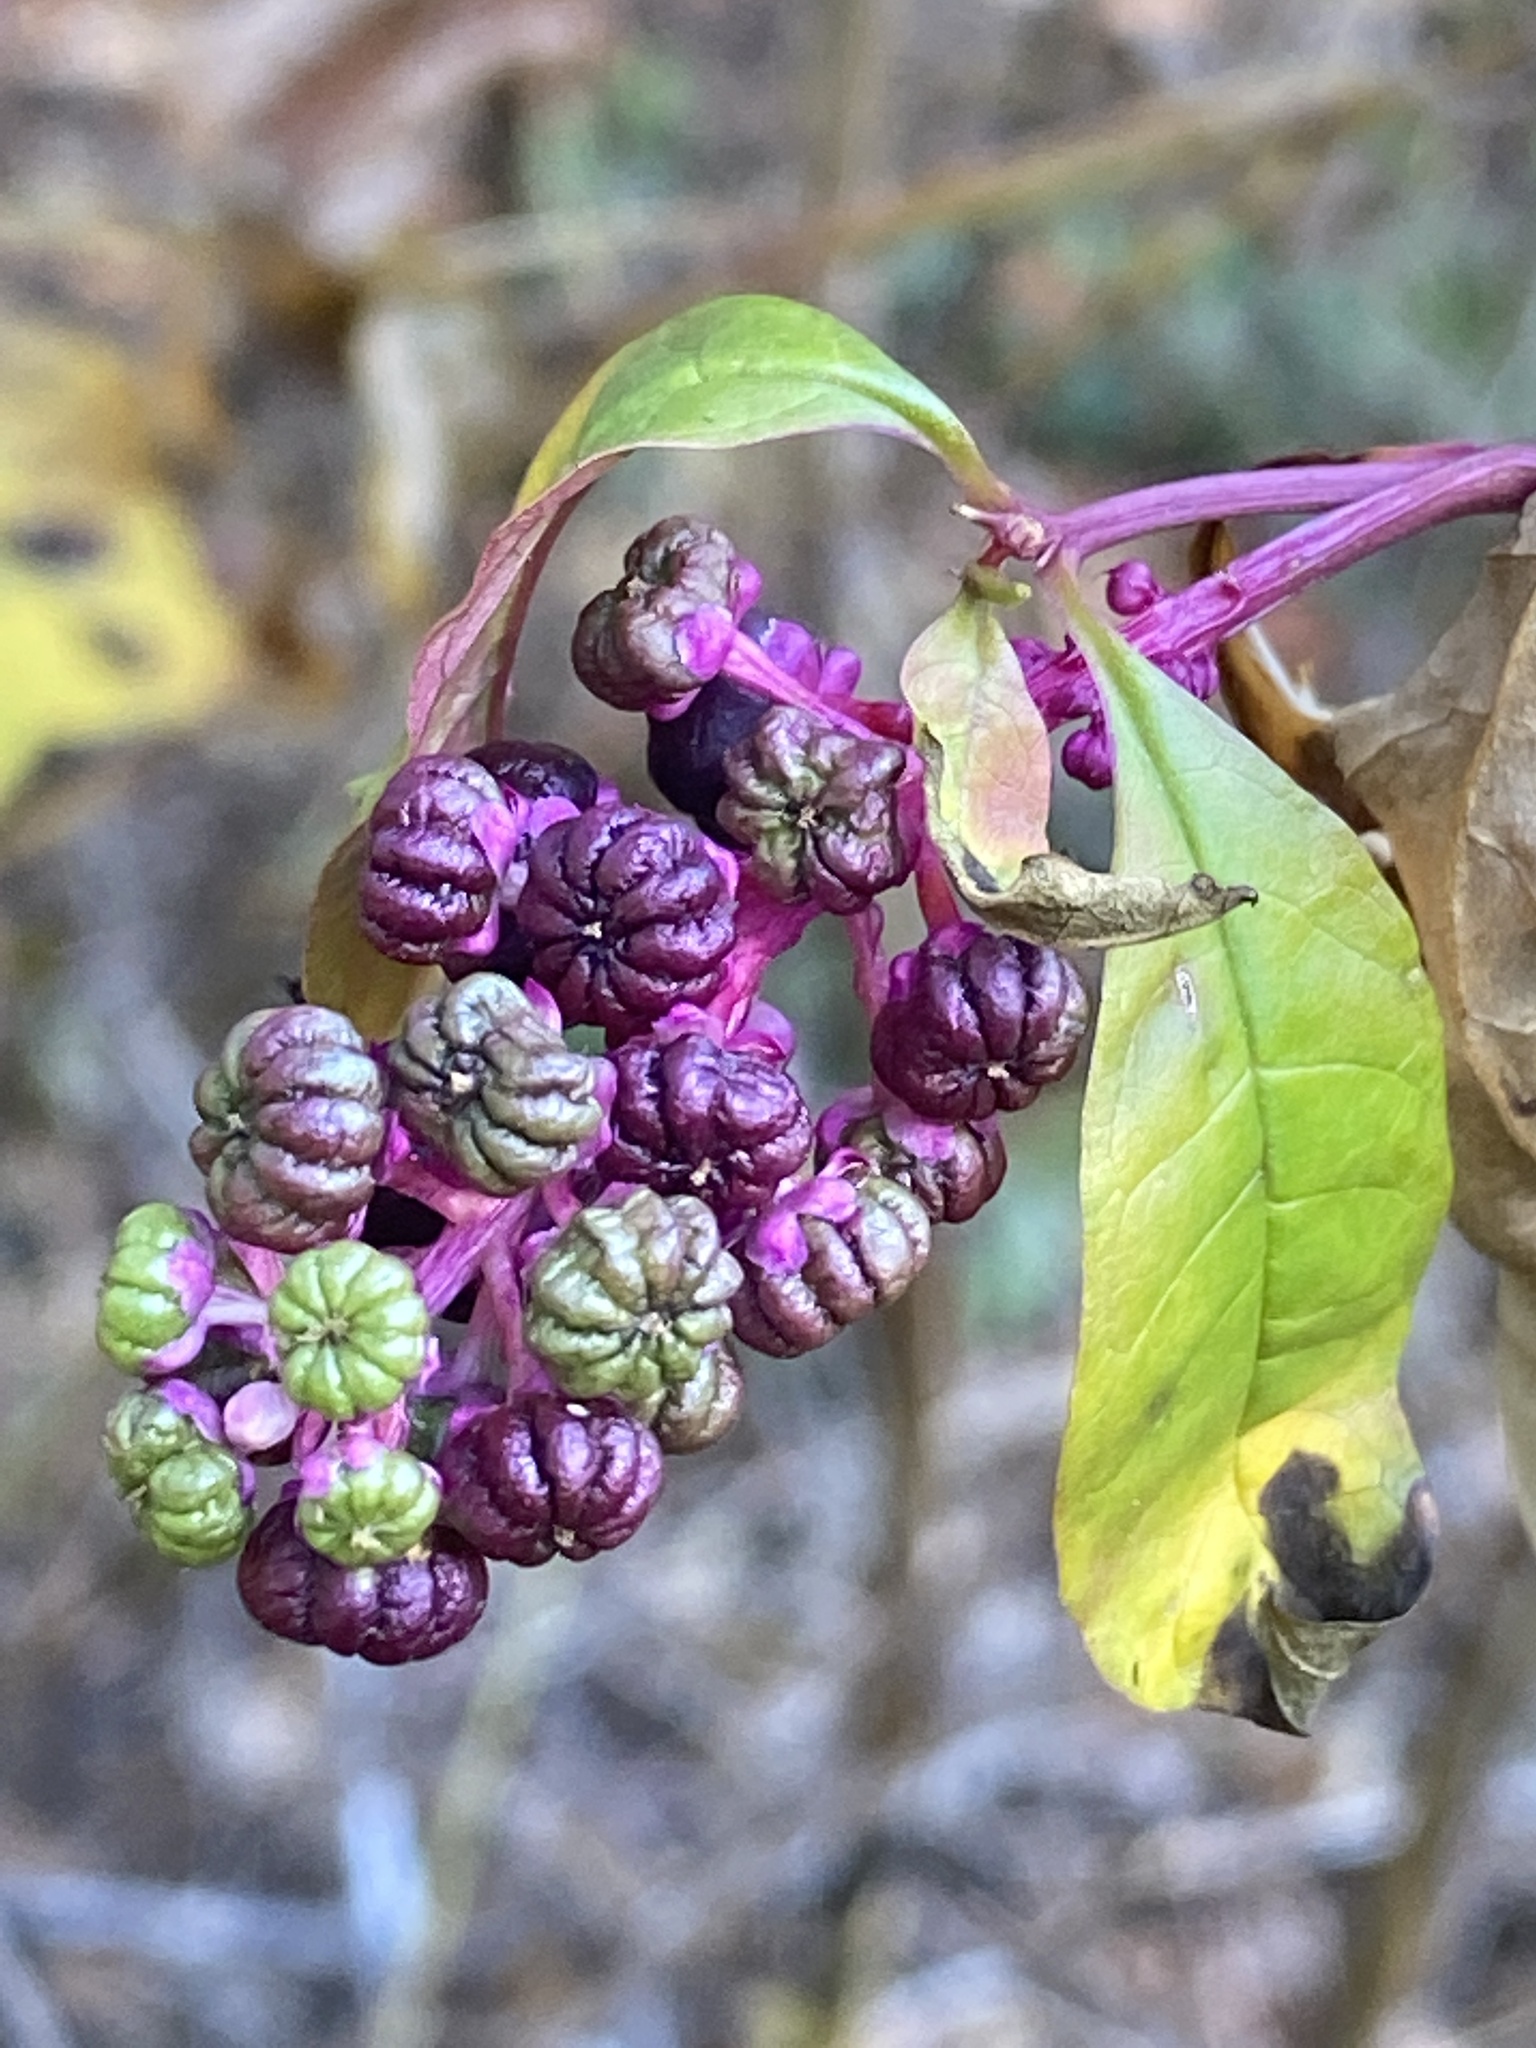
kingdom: Plantae
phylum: Tracheophyta
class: Magnoliopsida
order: Caryophyllales
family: Phytolaccaceae
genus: Phytolacca
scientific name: Phytolacca americana
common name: American pokeweed
